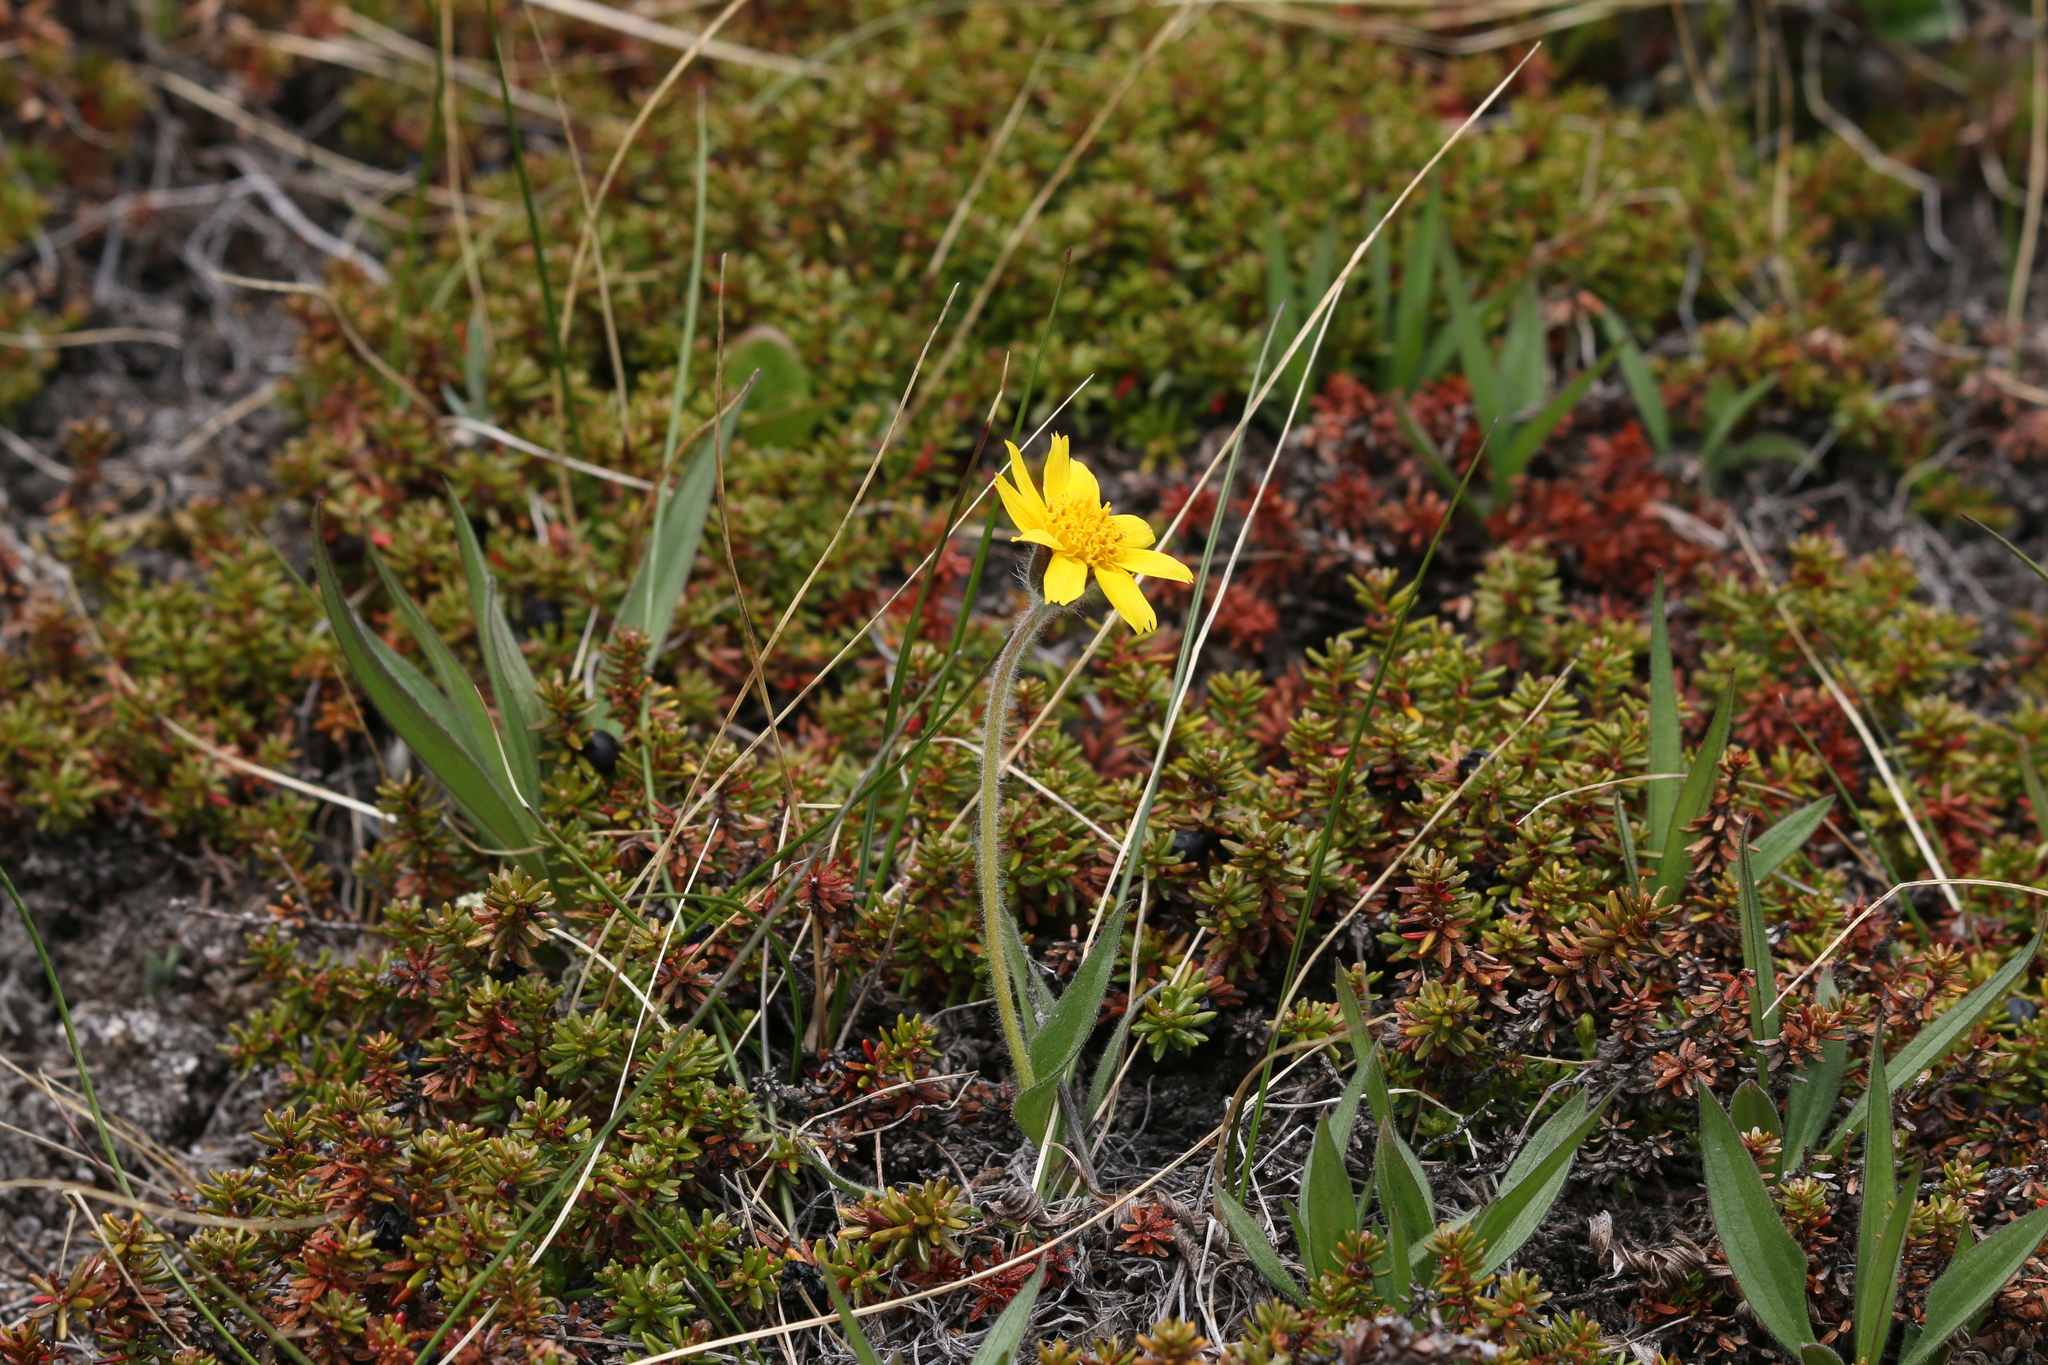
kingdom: Plantae
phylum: Tracheophyta
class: Magnoliopsida
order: Asterales
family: Asteraceae
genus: Arnica
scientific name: Arnica angustifolia
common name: Arctic arnica
